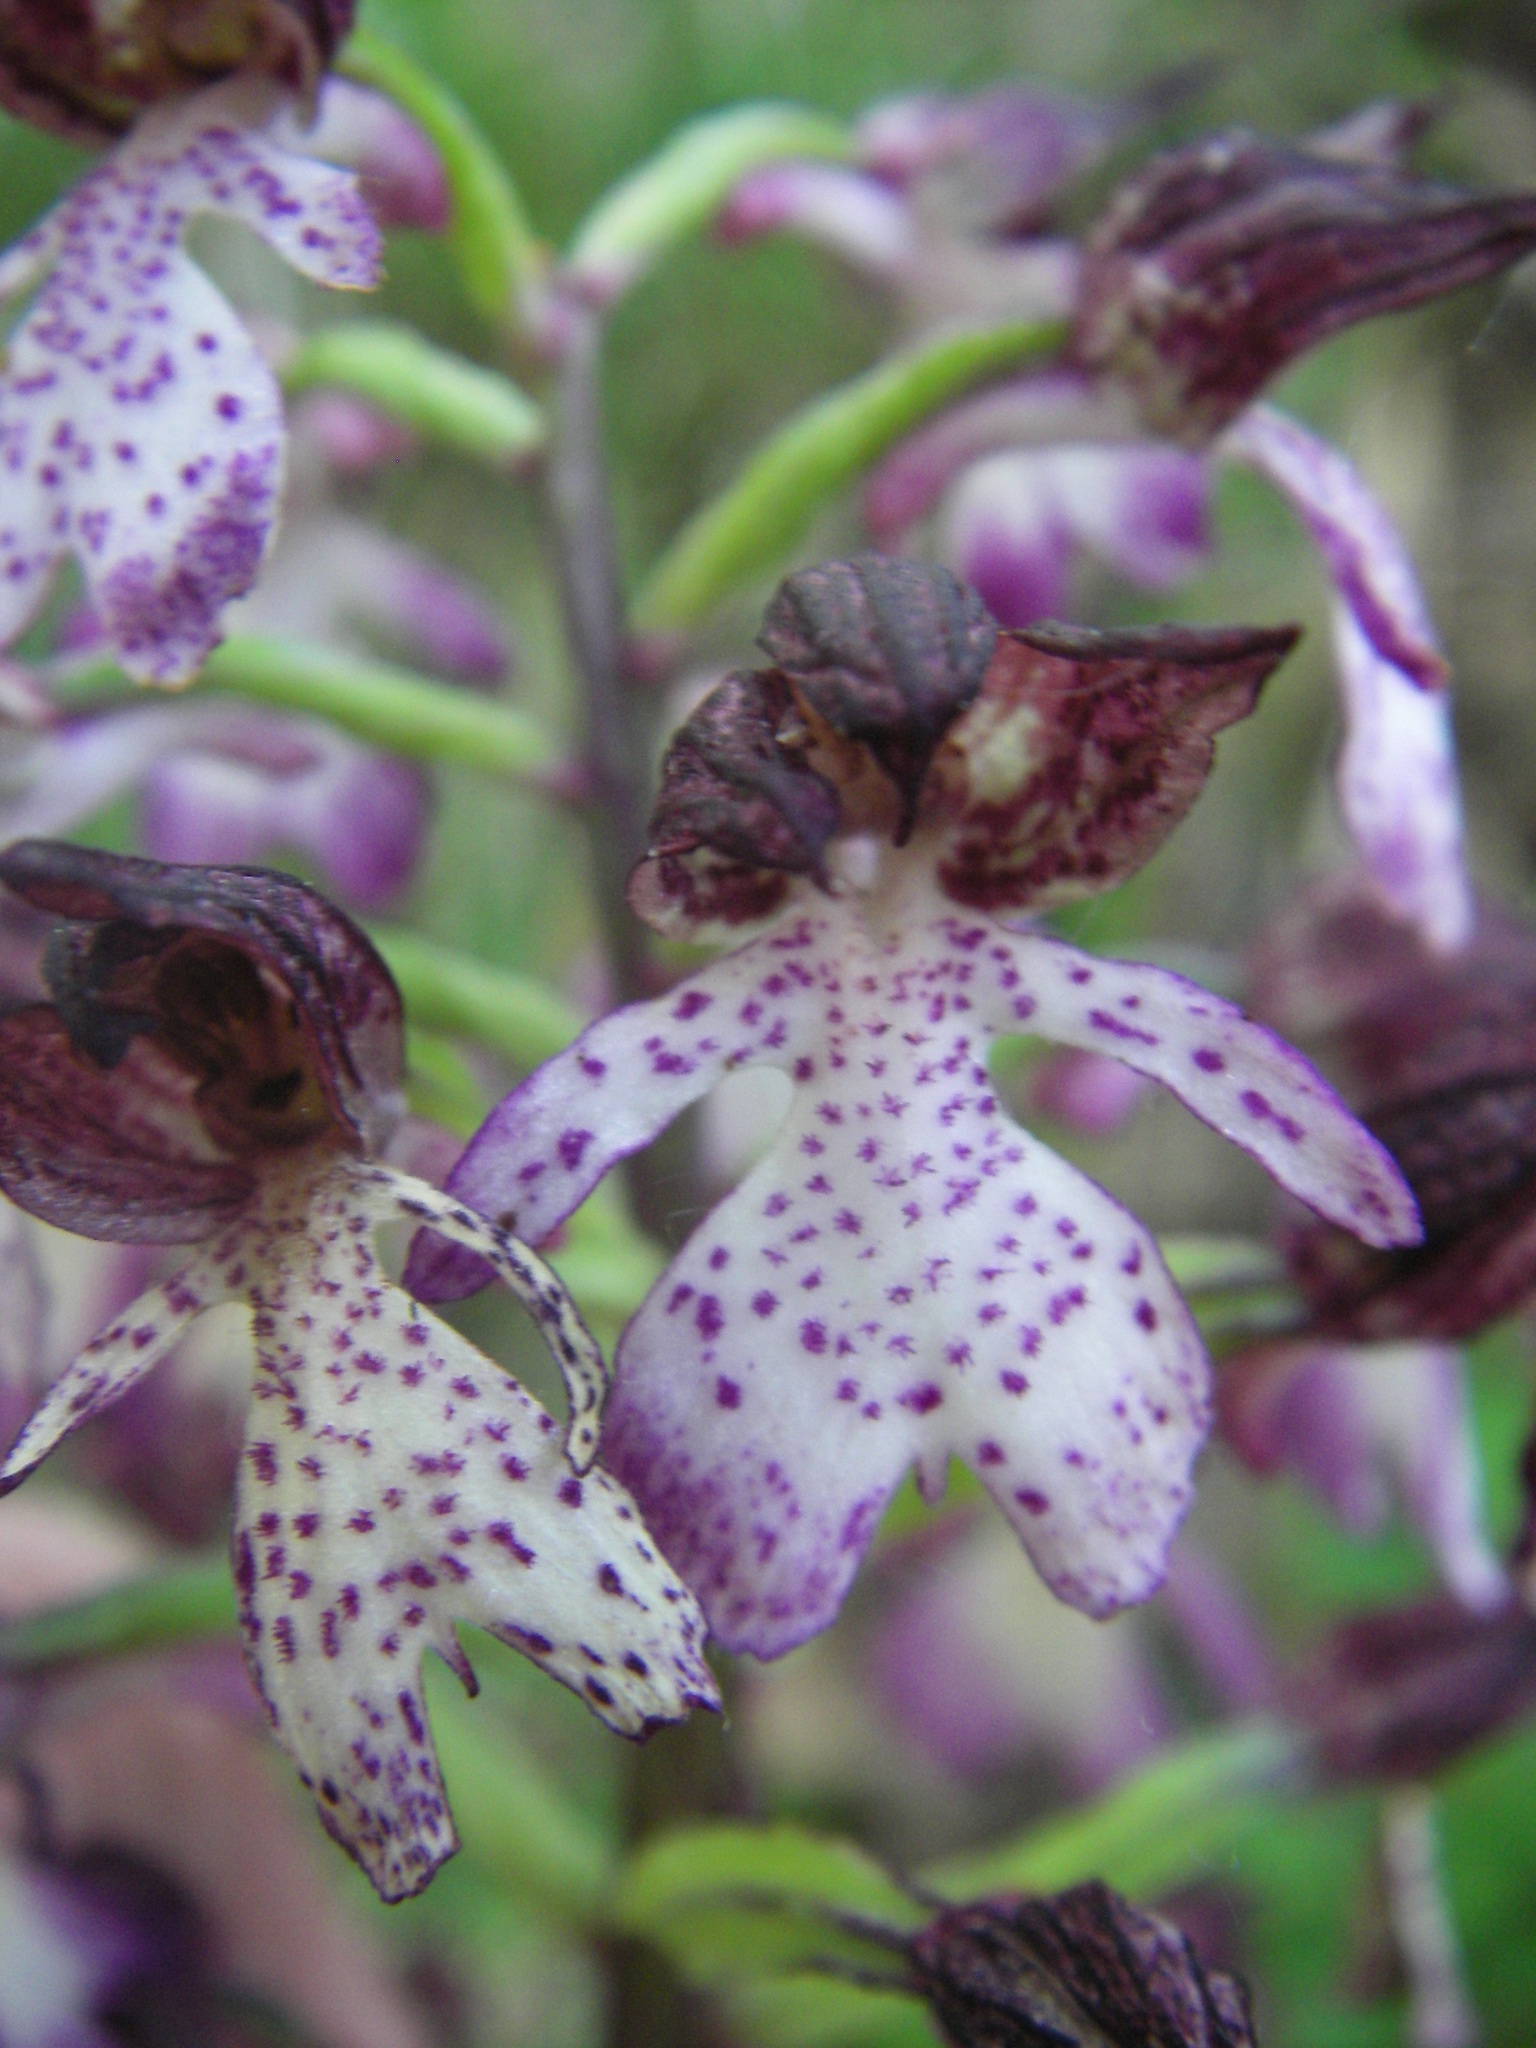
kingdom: Plantae
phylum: Tracheophyta
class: Liliopsida
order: Asparagales
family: Orchidaceae
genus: Orchis
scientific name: Orchis purpurea
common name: Lady orchid
